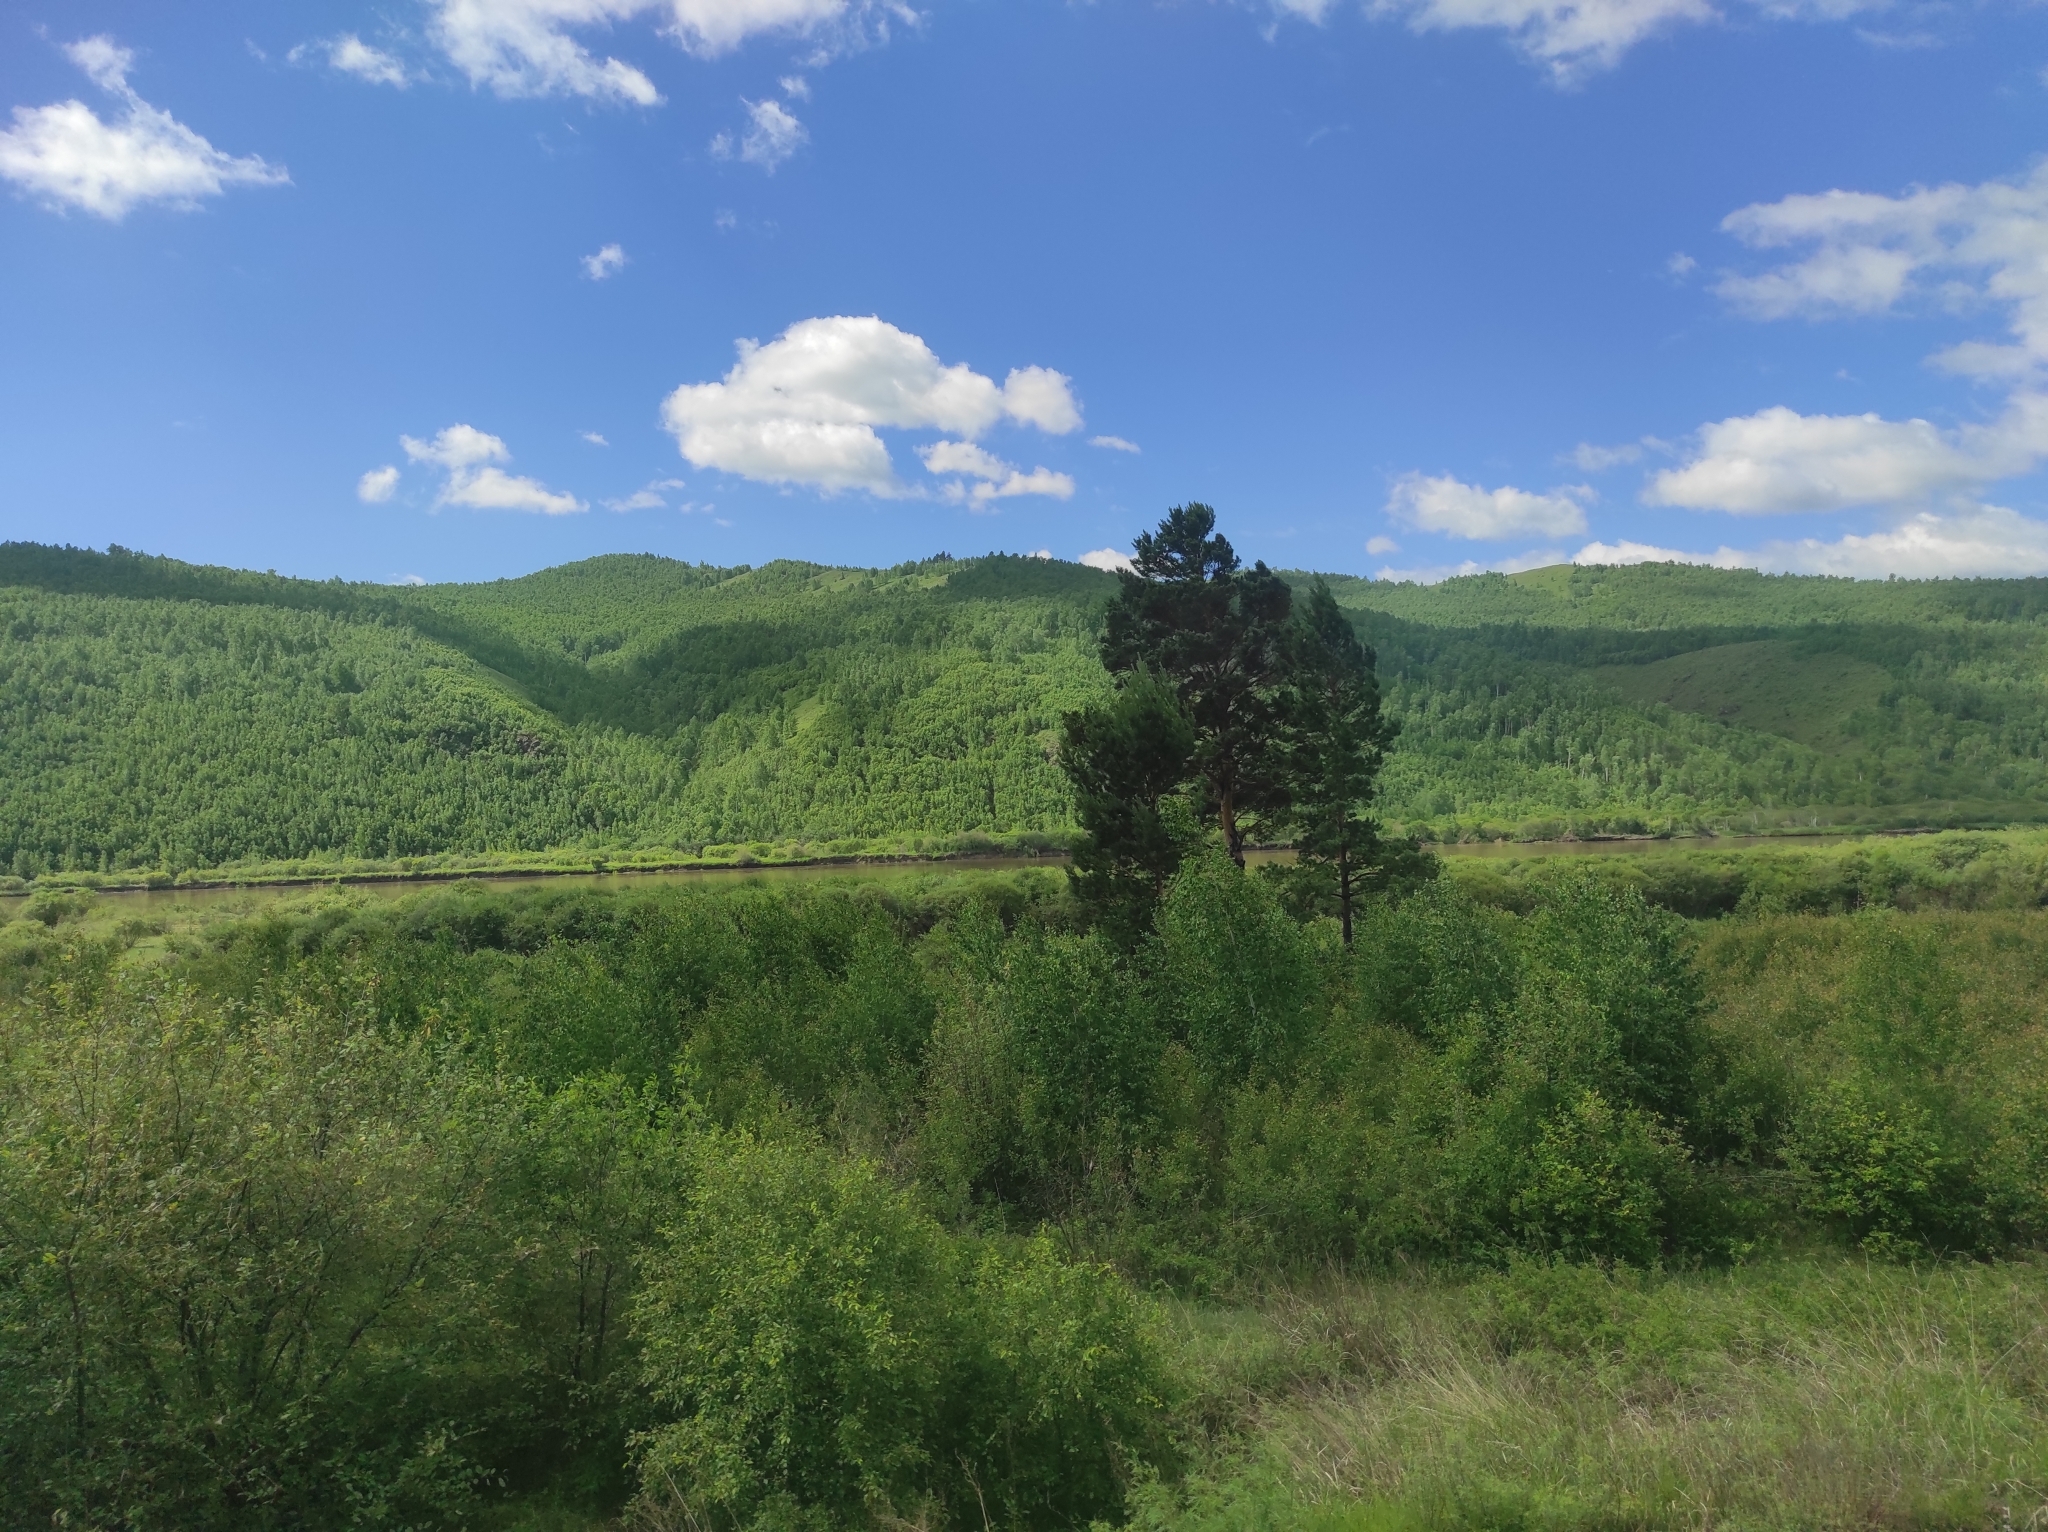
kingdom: Plantae
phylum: Tracheophyta
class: Pinopsida
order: Pinales
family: Pinaceae
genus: Pinus
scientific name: Pinus sylvestris
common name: Scots pine
